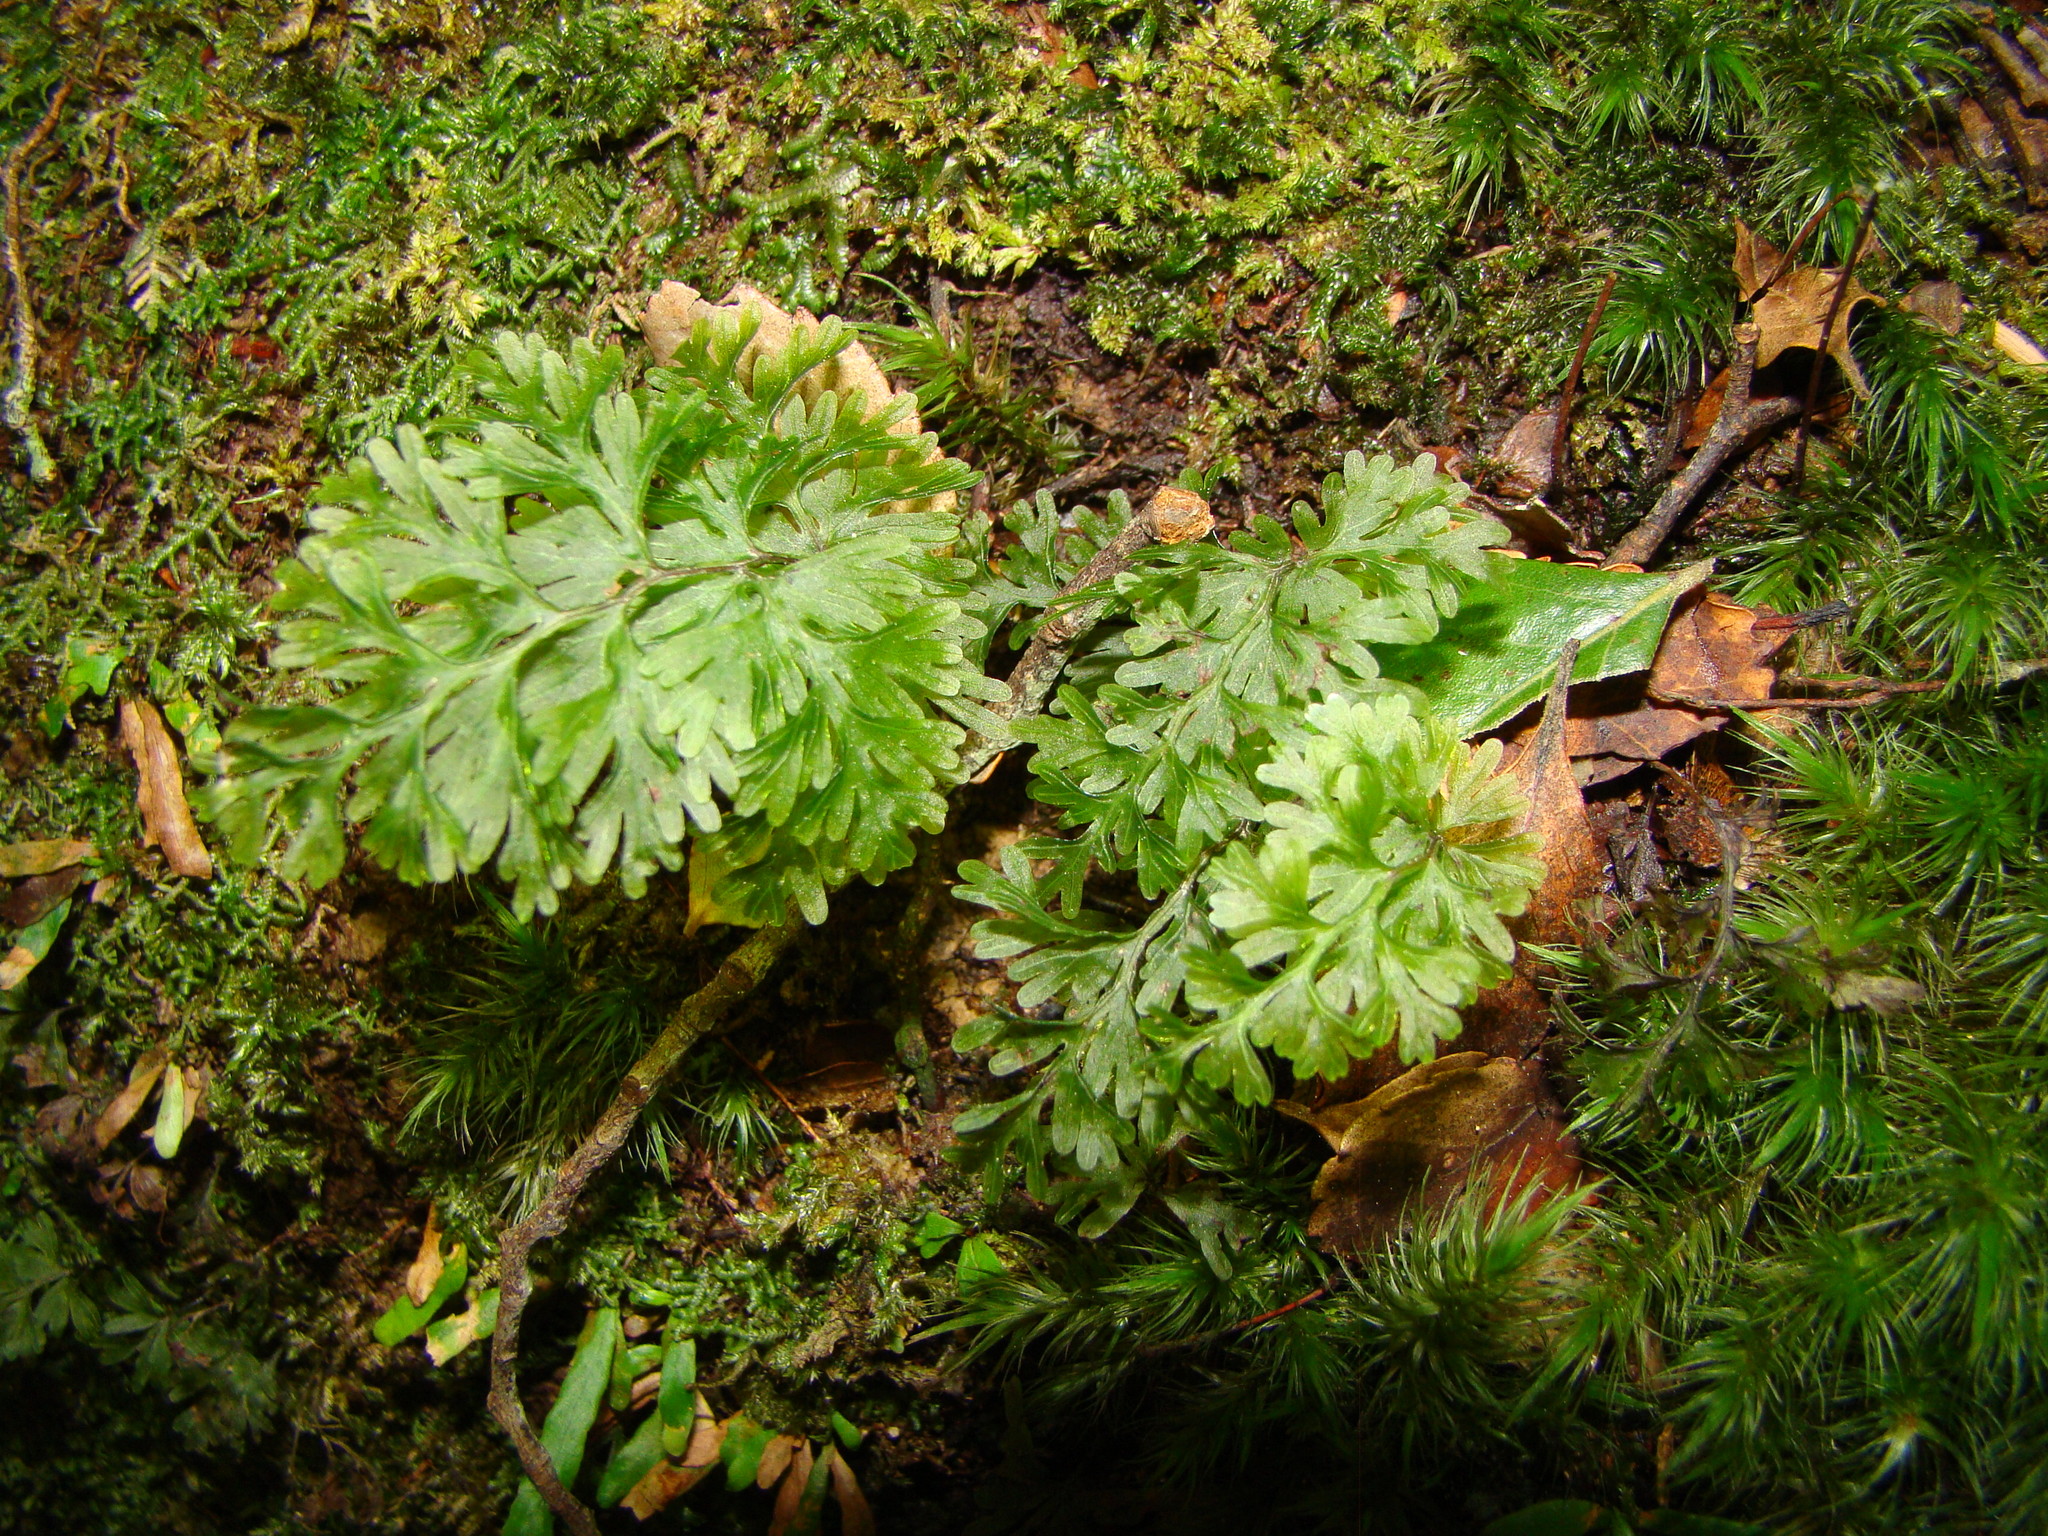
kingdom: Plantae
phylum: Tracheophyta
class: Polypodiopsida
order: Hymenophyllales
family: Hymenophyllaceae
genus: Hymenophyllum
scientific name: Hymenophyllum flabellatum
